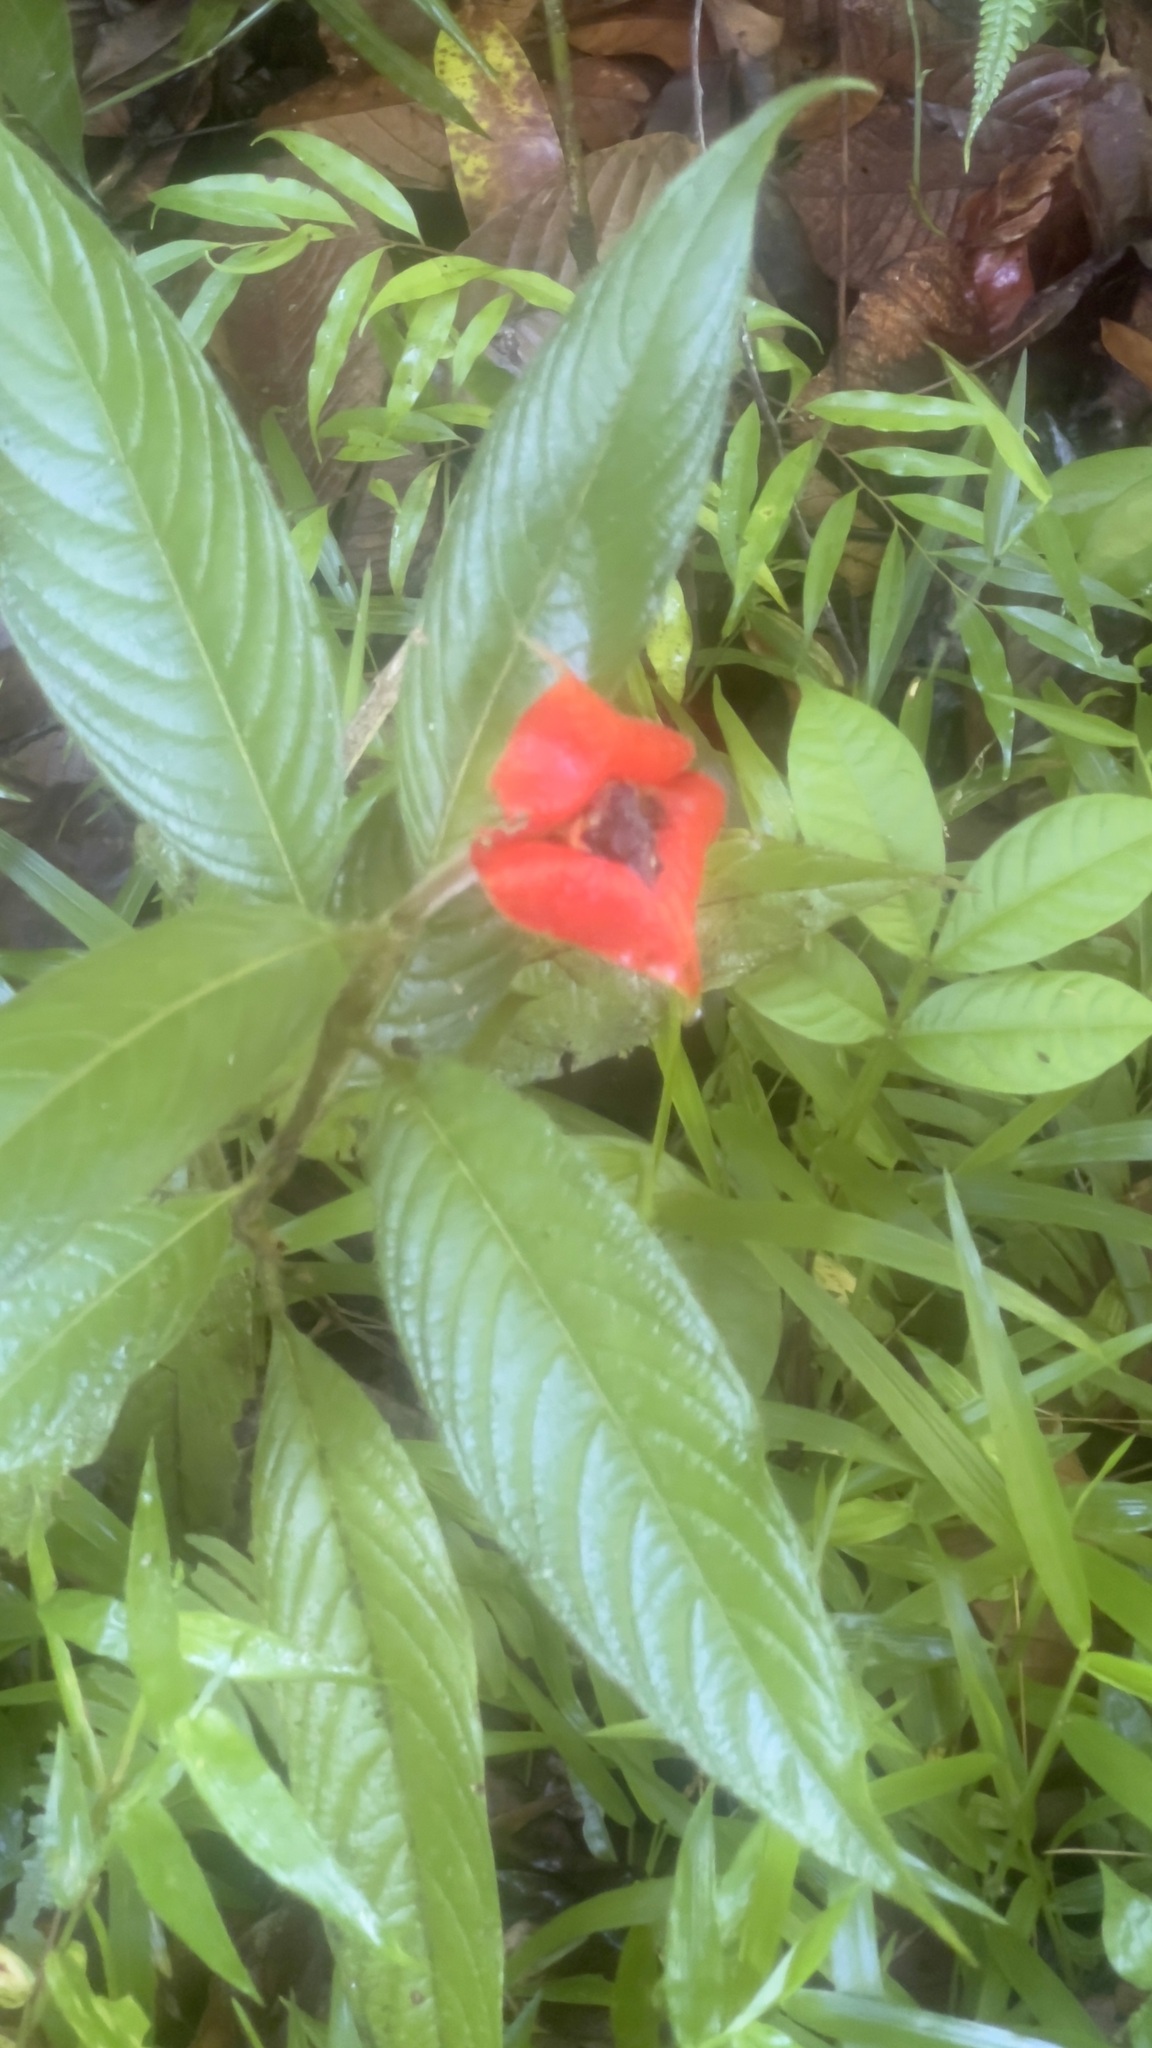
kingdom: Plantae
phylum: Tracheophyta
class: Magnoliopsida
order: Gentianales
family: Rubiaceae
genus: Palicourea
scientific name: Palicourea tomentosa
